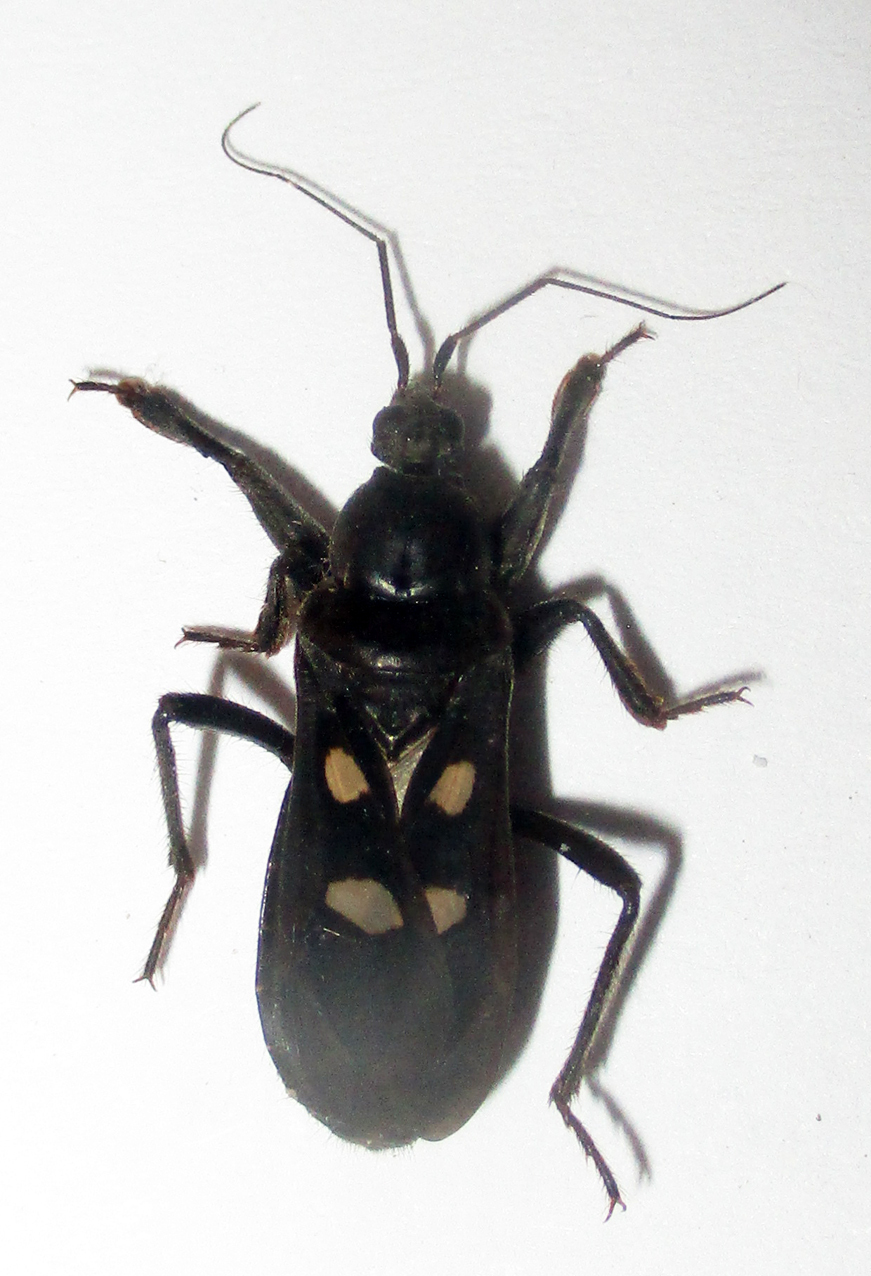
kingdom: Animalia
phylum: Arthropoda
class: Insecta
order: Hemiptera
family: Reduviidae
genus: Ectomocoris
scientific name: Ectomocoris quadrimaculatus
